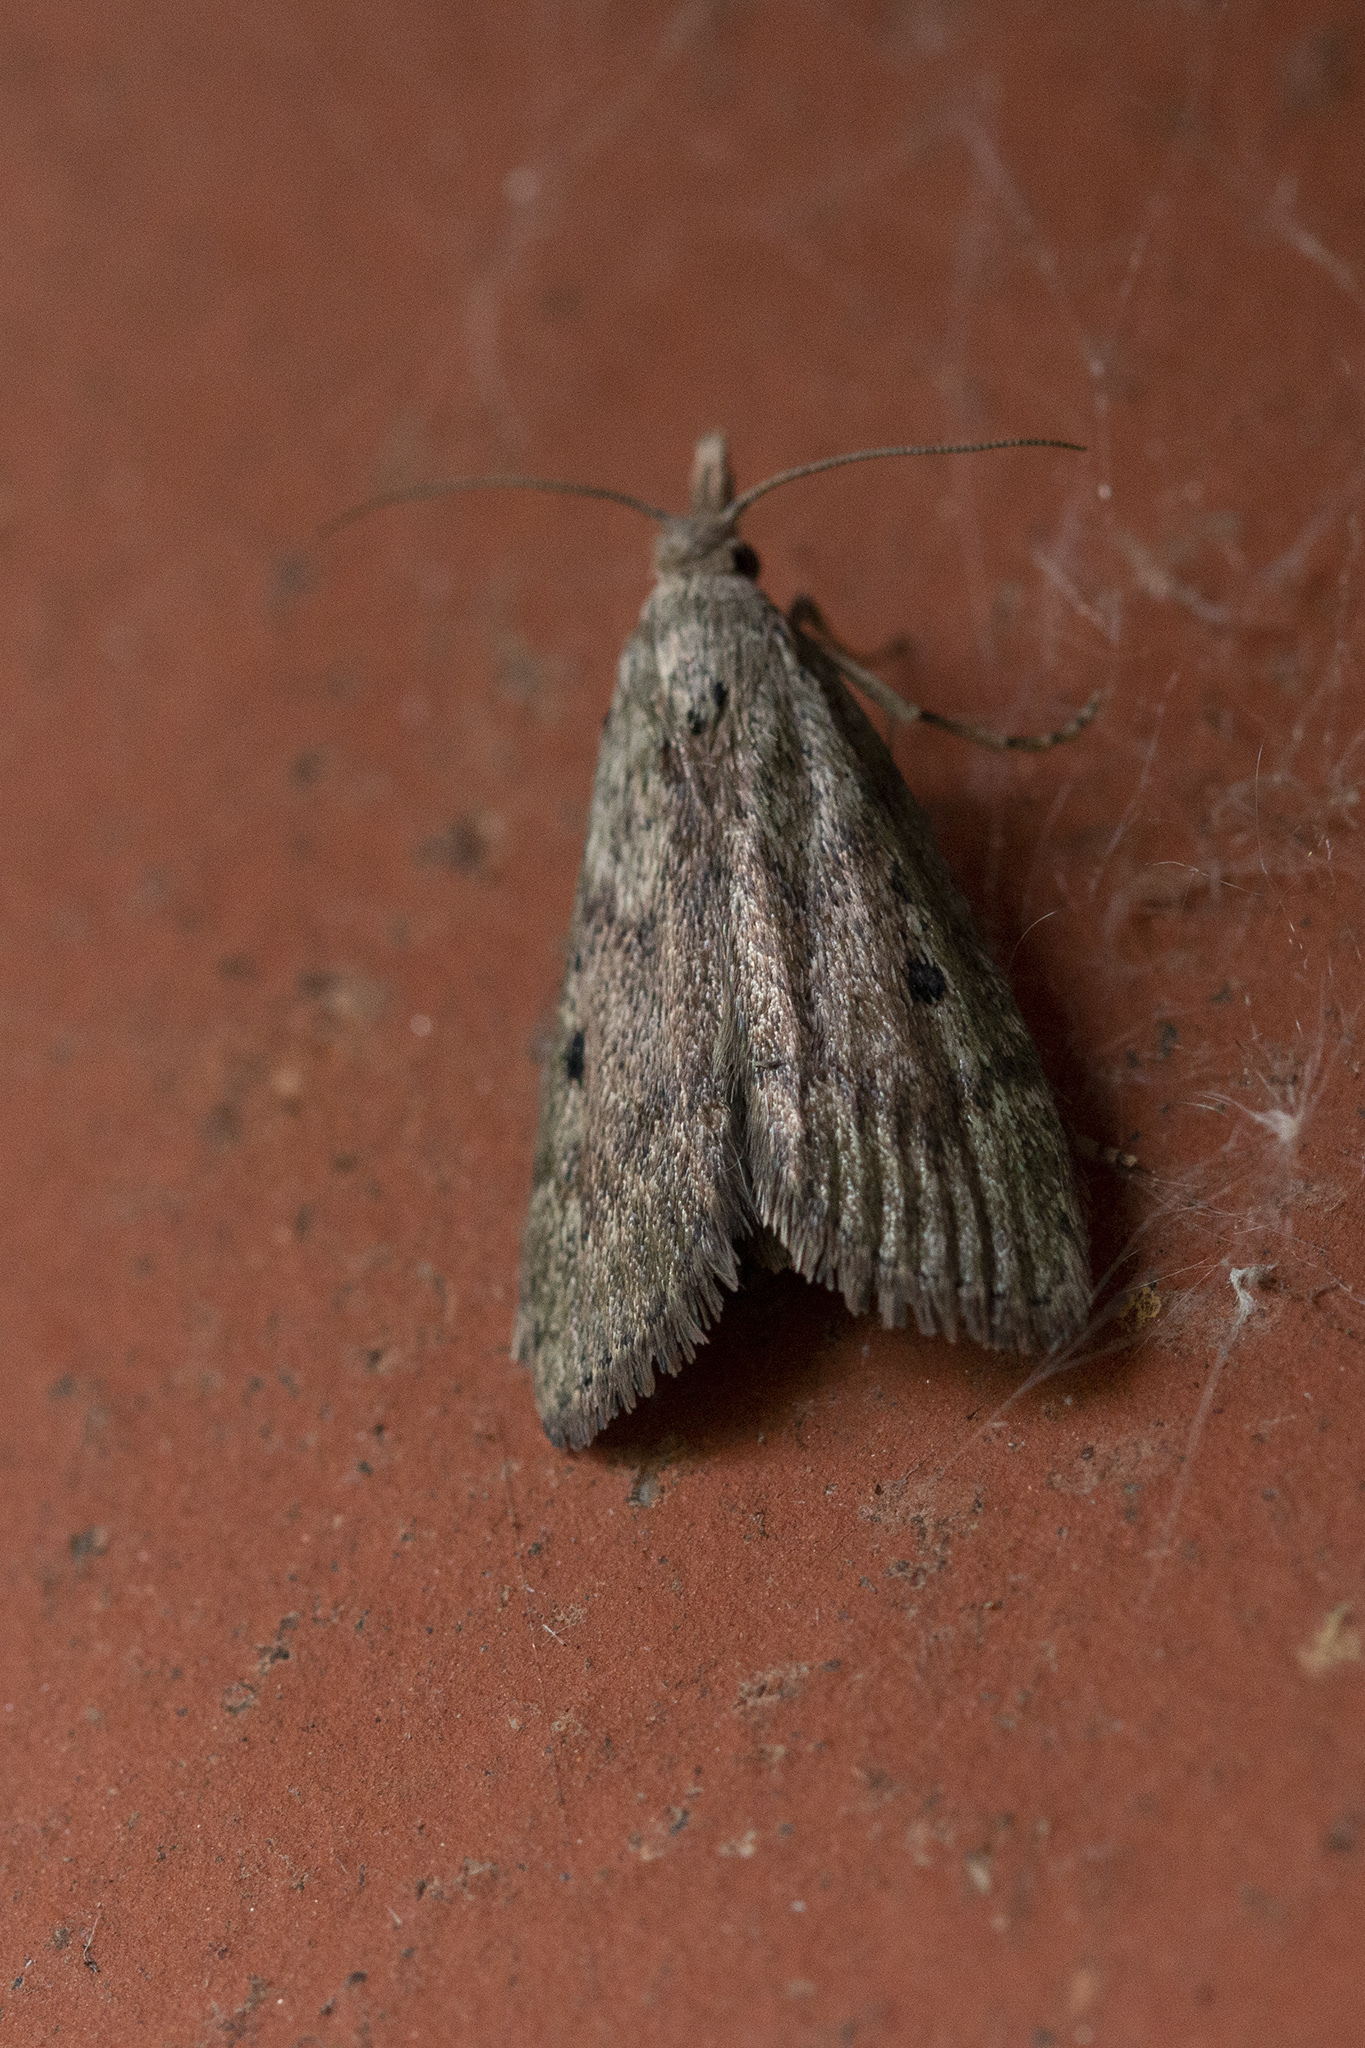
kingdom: Animalia
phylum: Arthropoda
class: Insecta
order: Lepidoptera
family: Pyralidae
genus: Aphomia
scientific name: Aphomia sociella
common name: Bee moth
